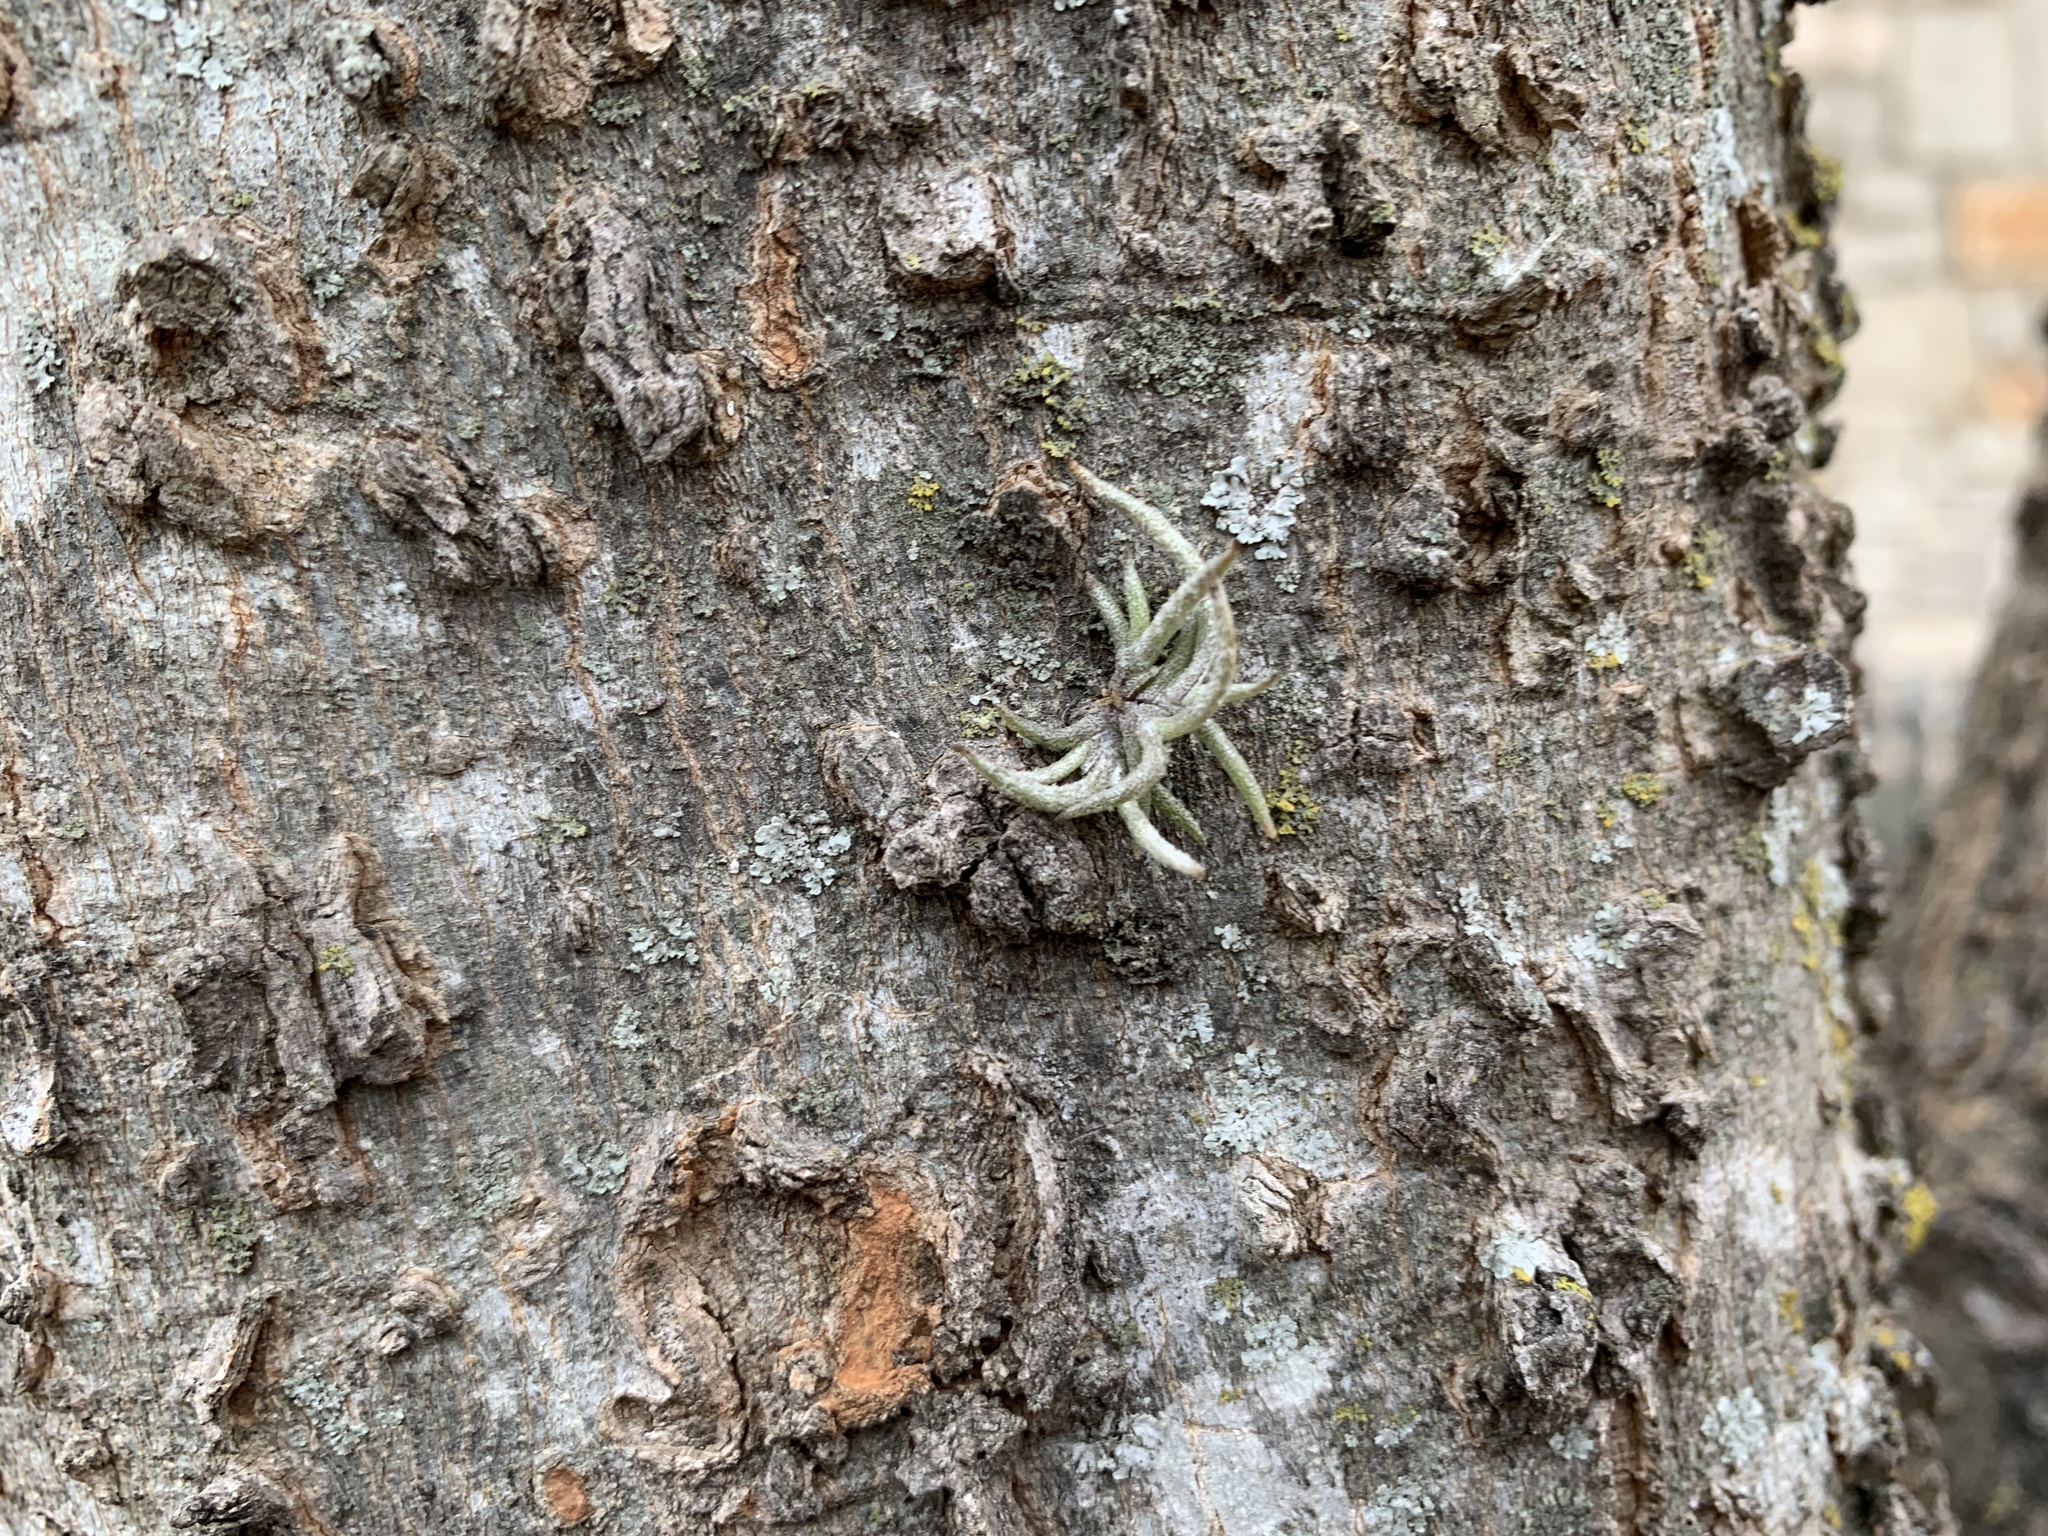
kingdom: Plantae
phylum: Tracheophyta
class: Liliopsida
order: Poales
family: Bromeliaceae
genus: Tillandsia
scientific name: Tillandsia recurvata
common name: Small ballmoss
